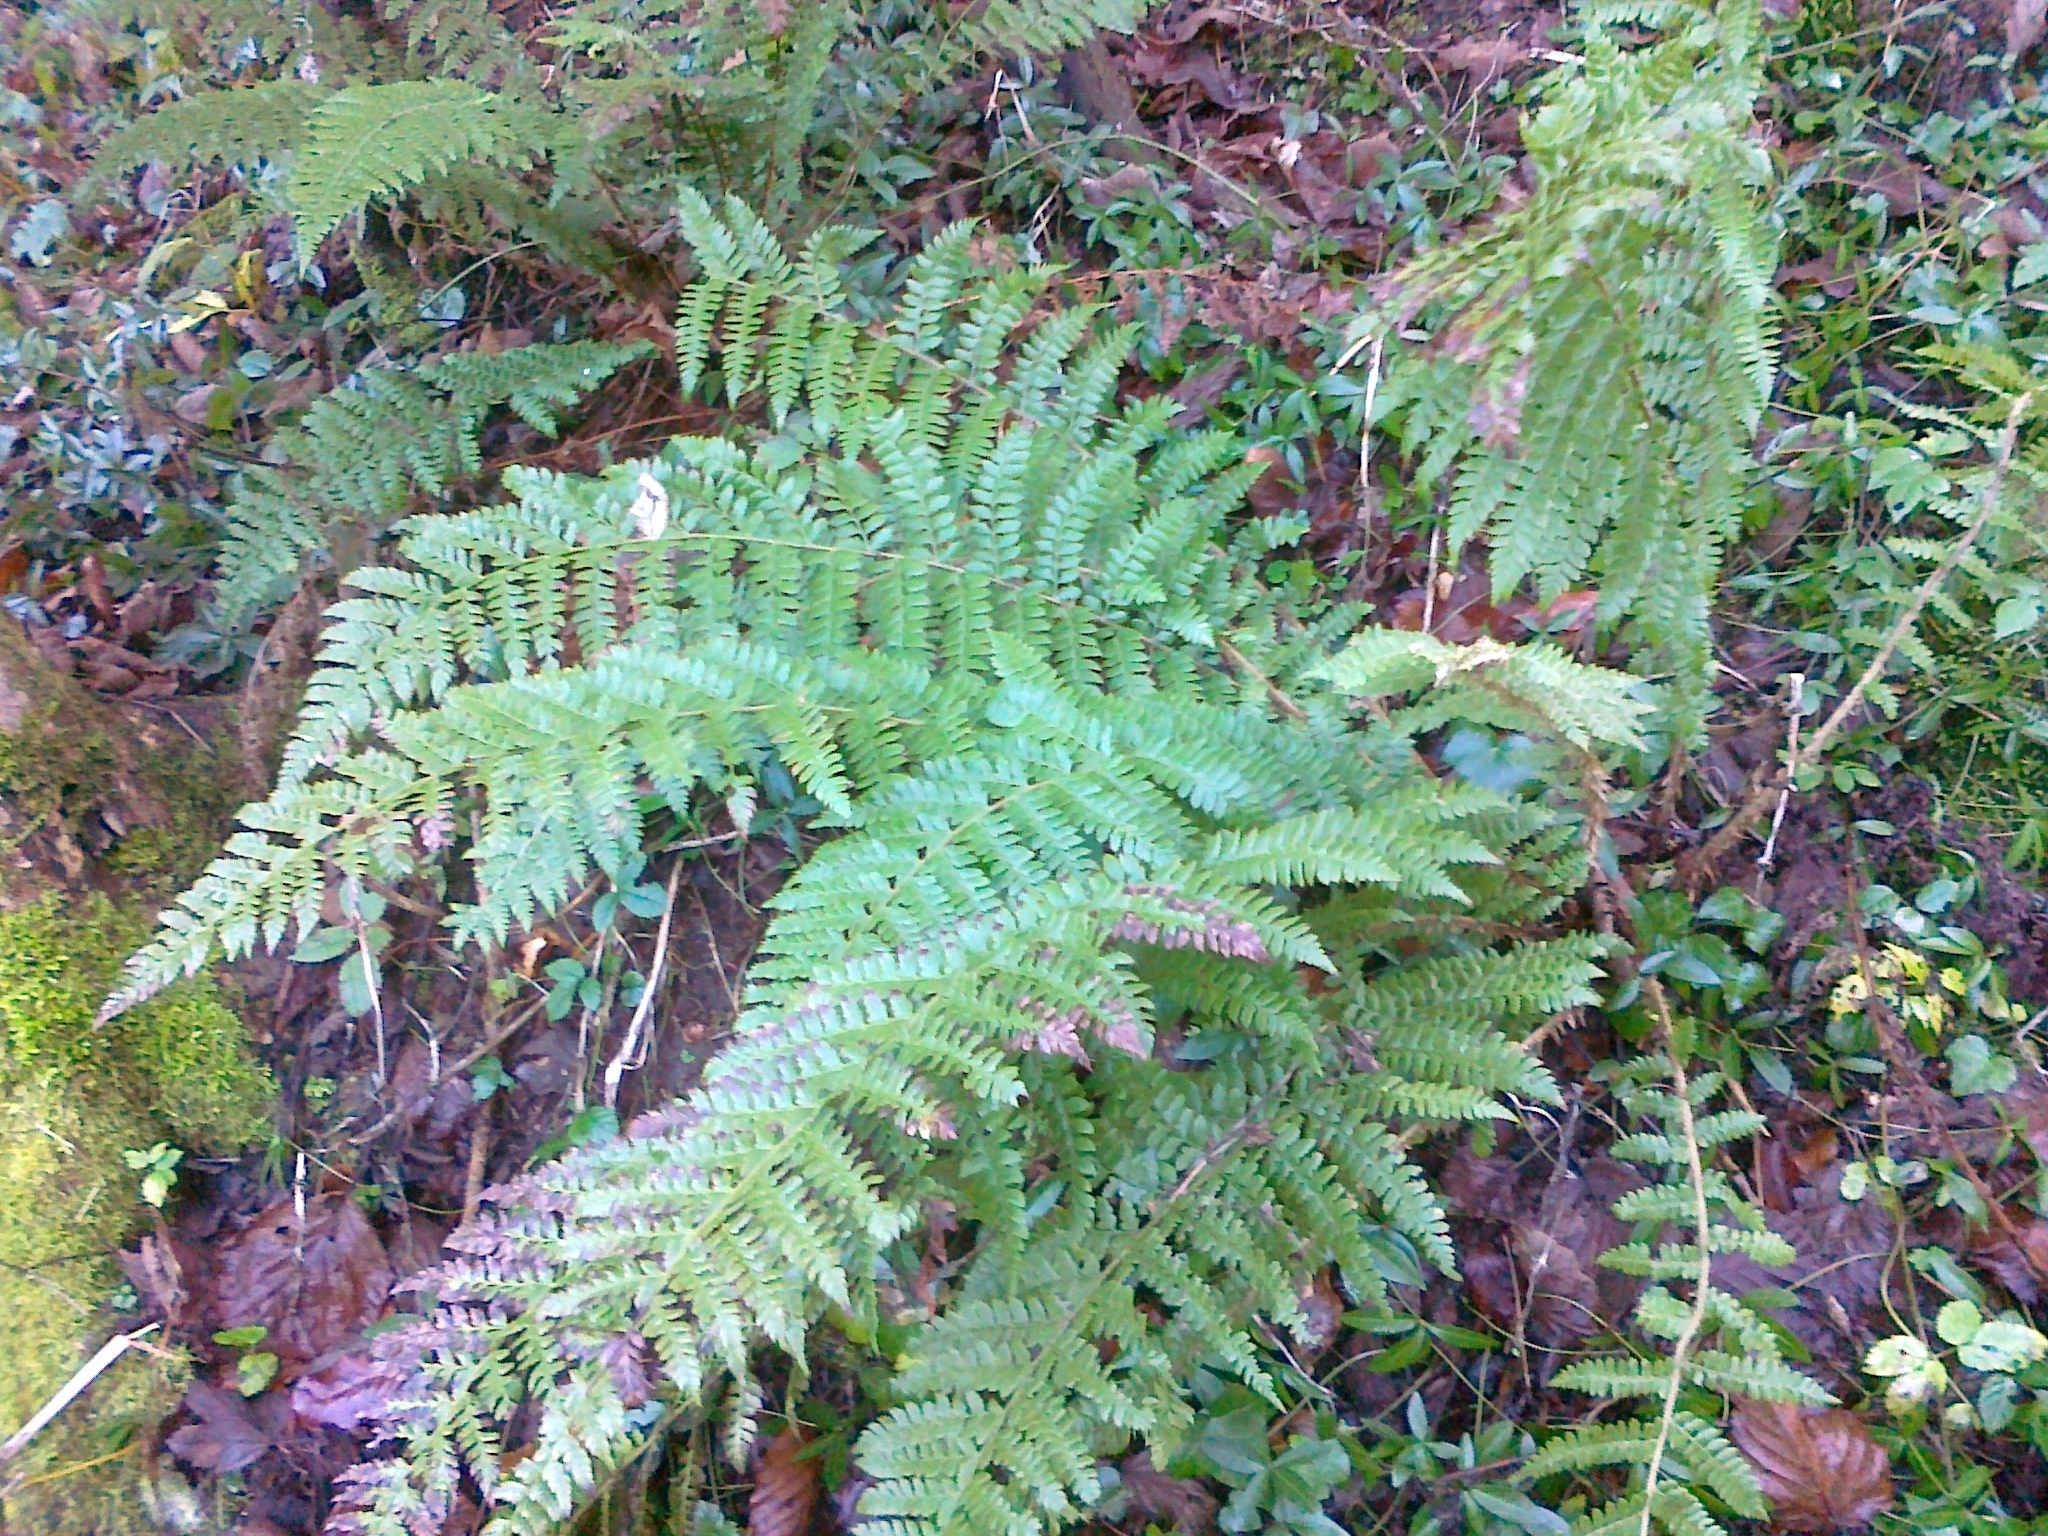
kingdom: Plantae
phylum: Tracheophyta
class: Polypodiopsida
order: Polypodiales
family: Dryopteridaceae
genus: Polystichum
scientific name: Polystichum braunii
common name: Braun's holly fern
